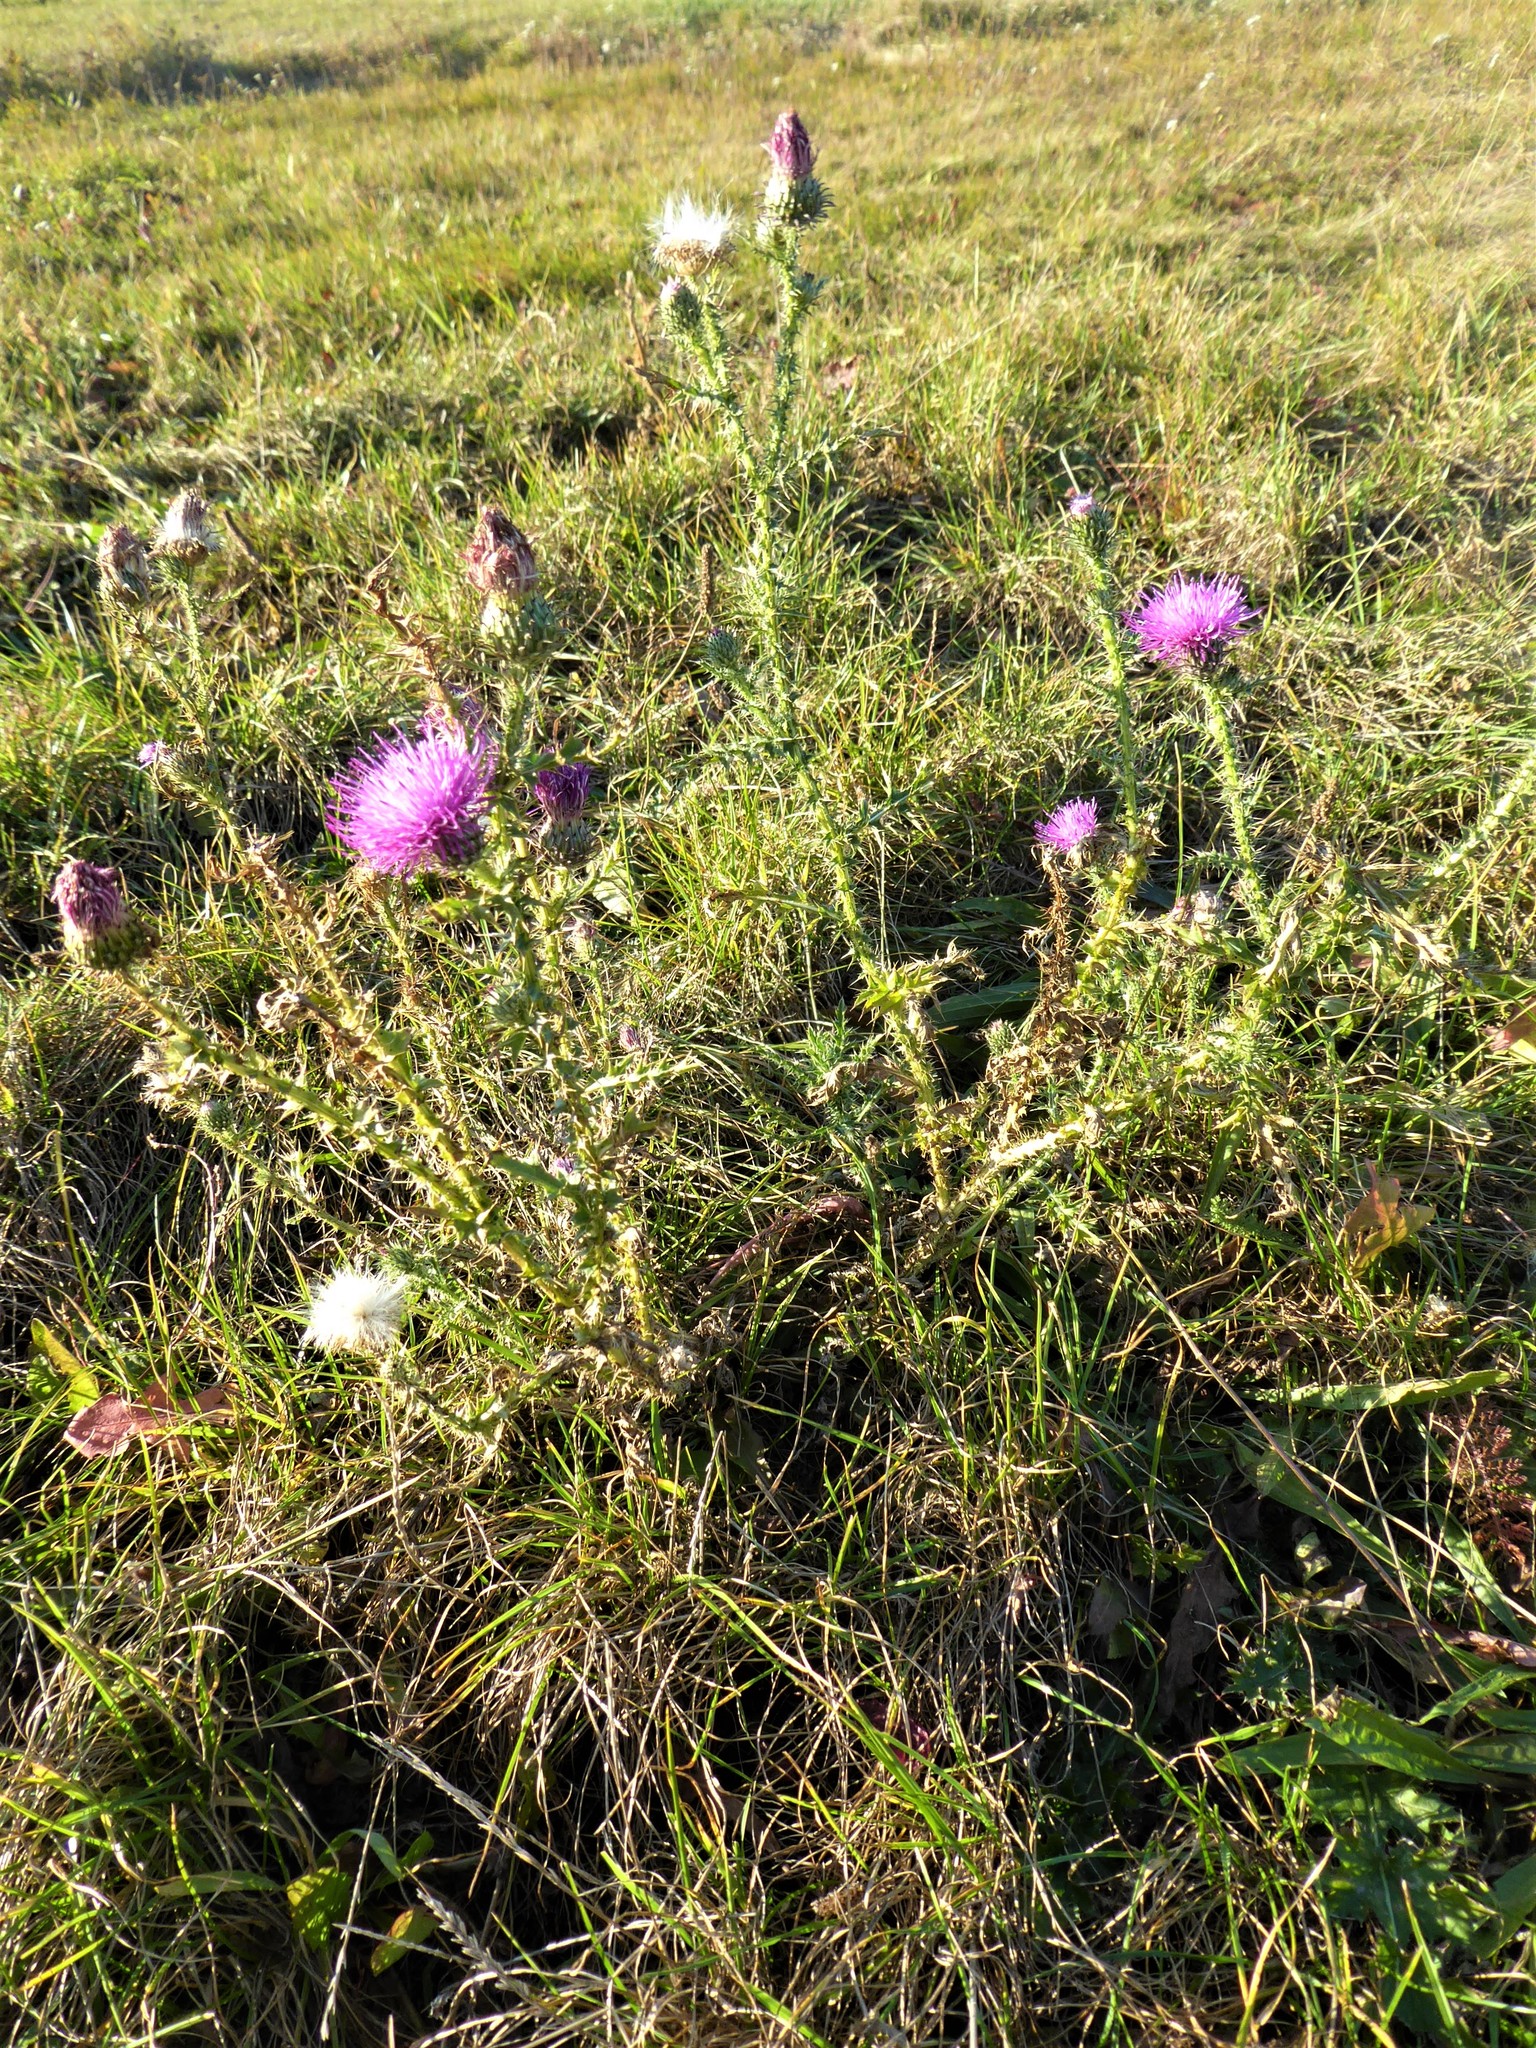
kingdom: Plantae
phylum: Tracheophyta
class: Magnoliopsida
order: Asterales
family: Asteraceae
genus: Carduus
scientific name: Carduus acanthoides
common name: Plumeless thistle
